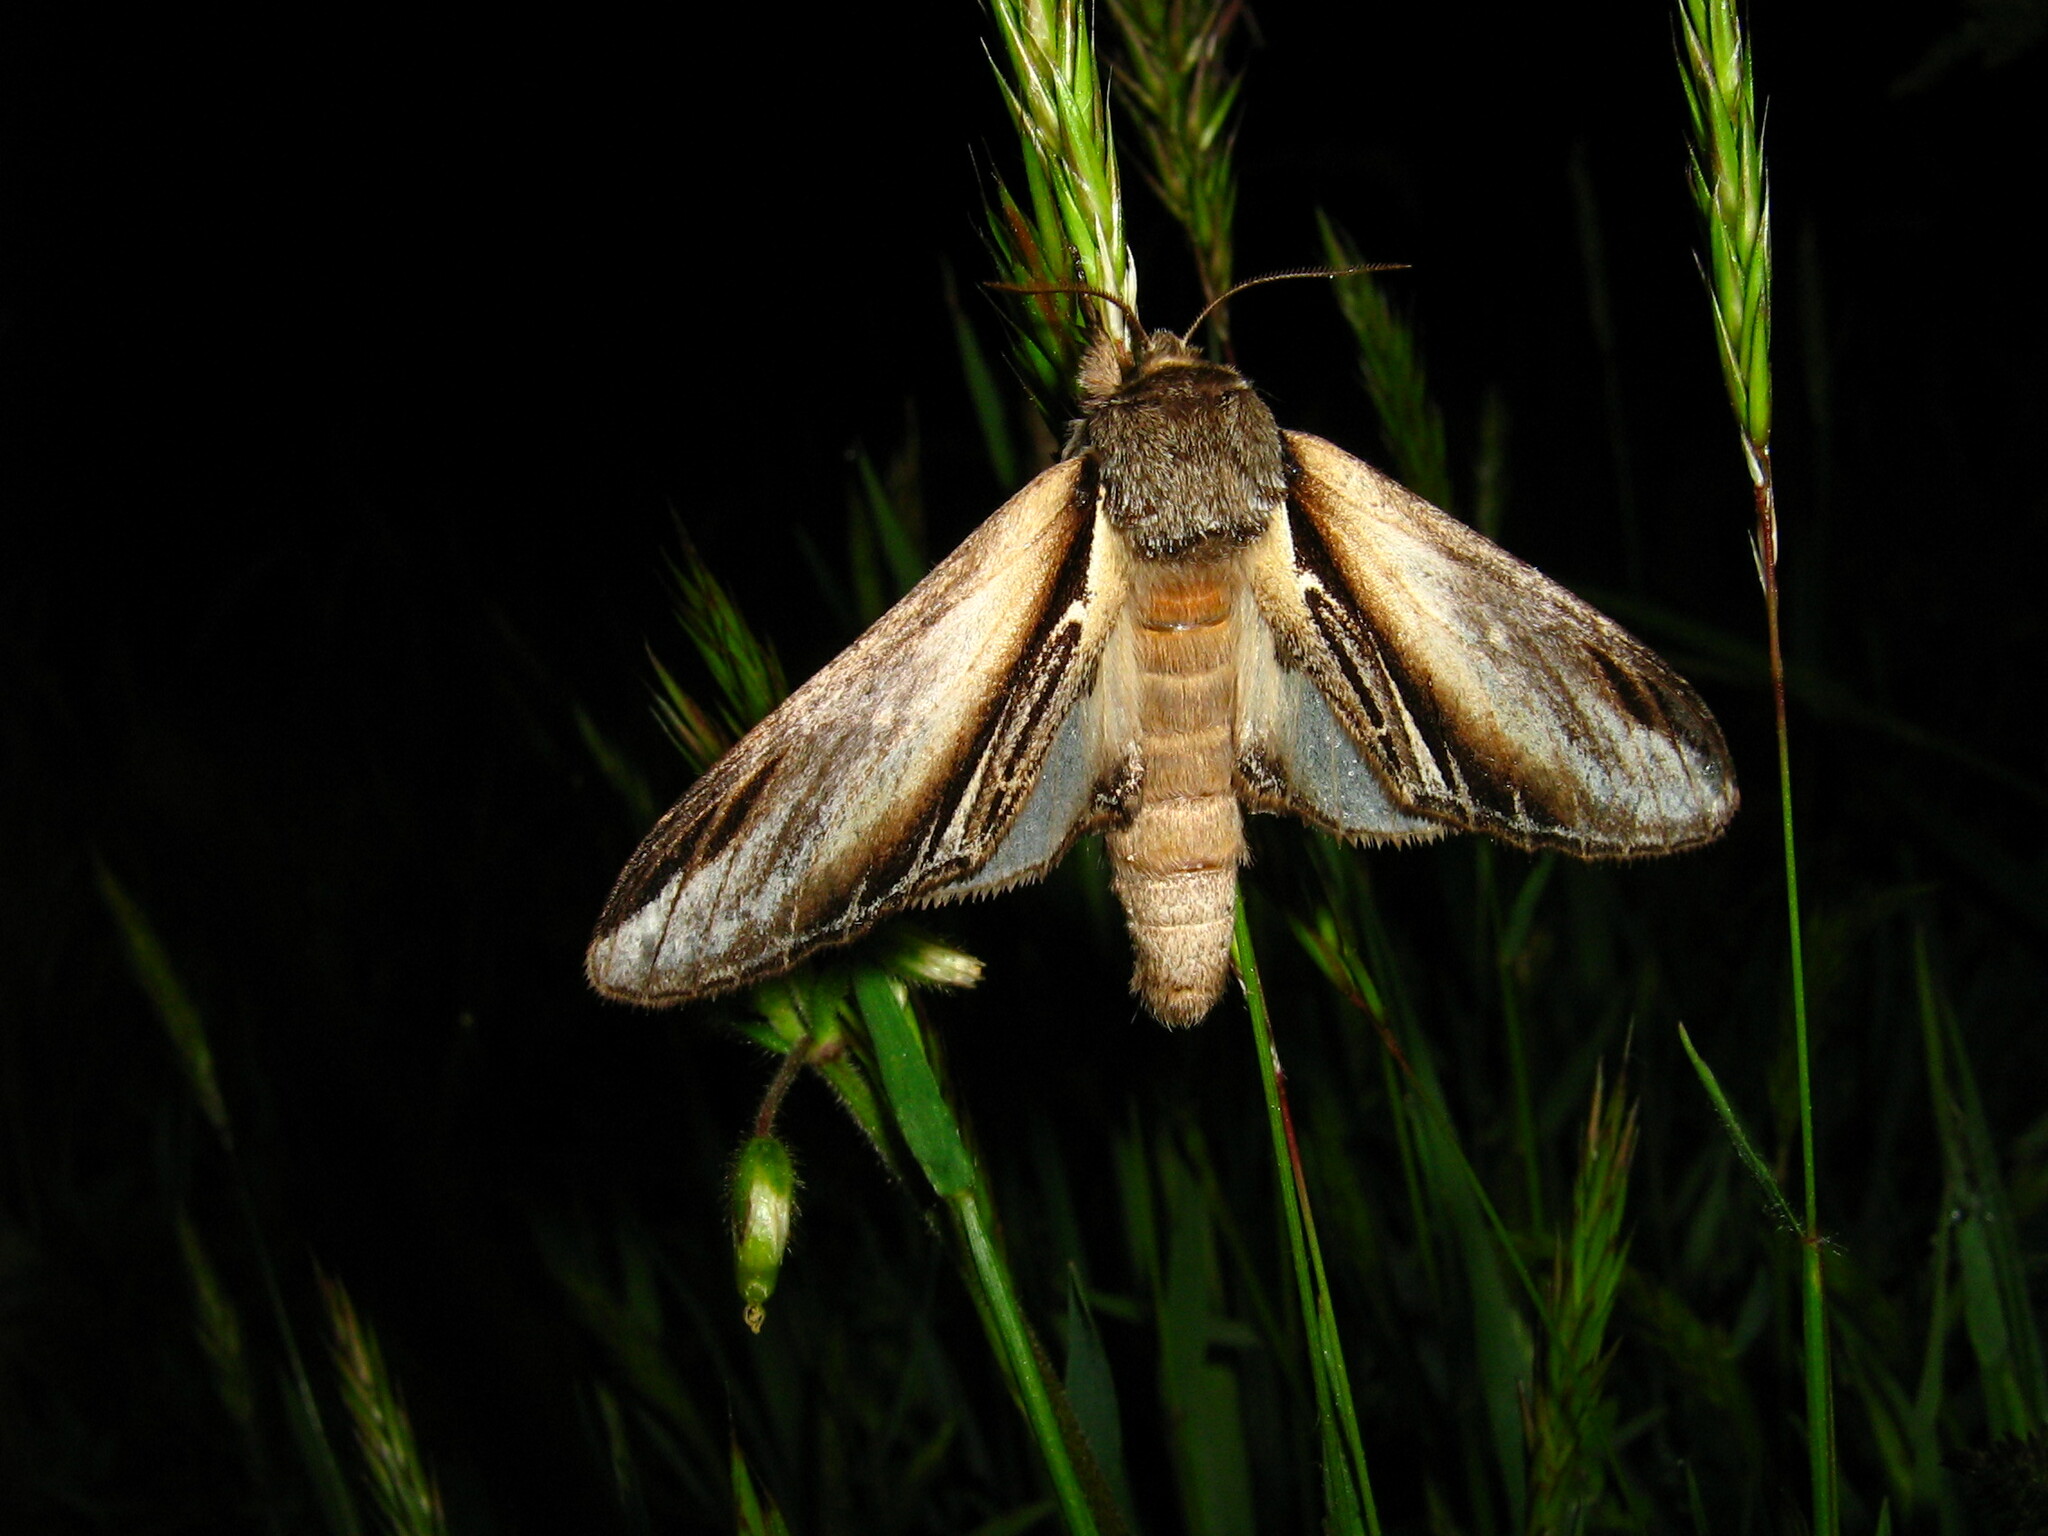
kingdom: Animalia
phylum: Arthropoda
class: Insecta
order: Lepidoptera
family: Notodontidae
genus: Pheosia
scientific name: Pheosia tremula
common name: Swallow prominent
